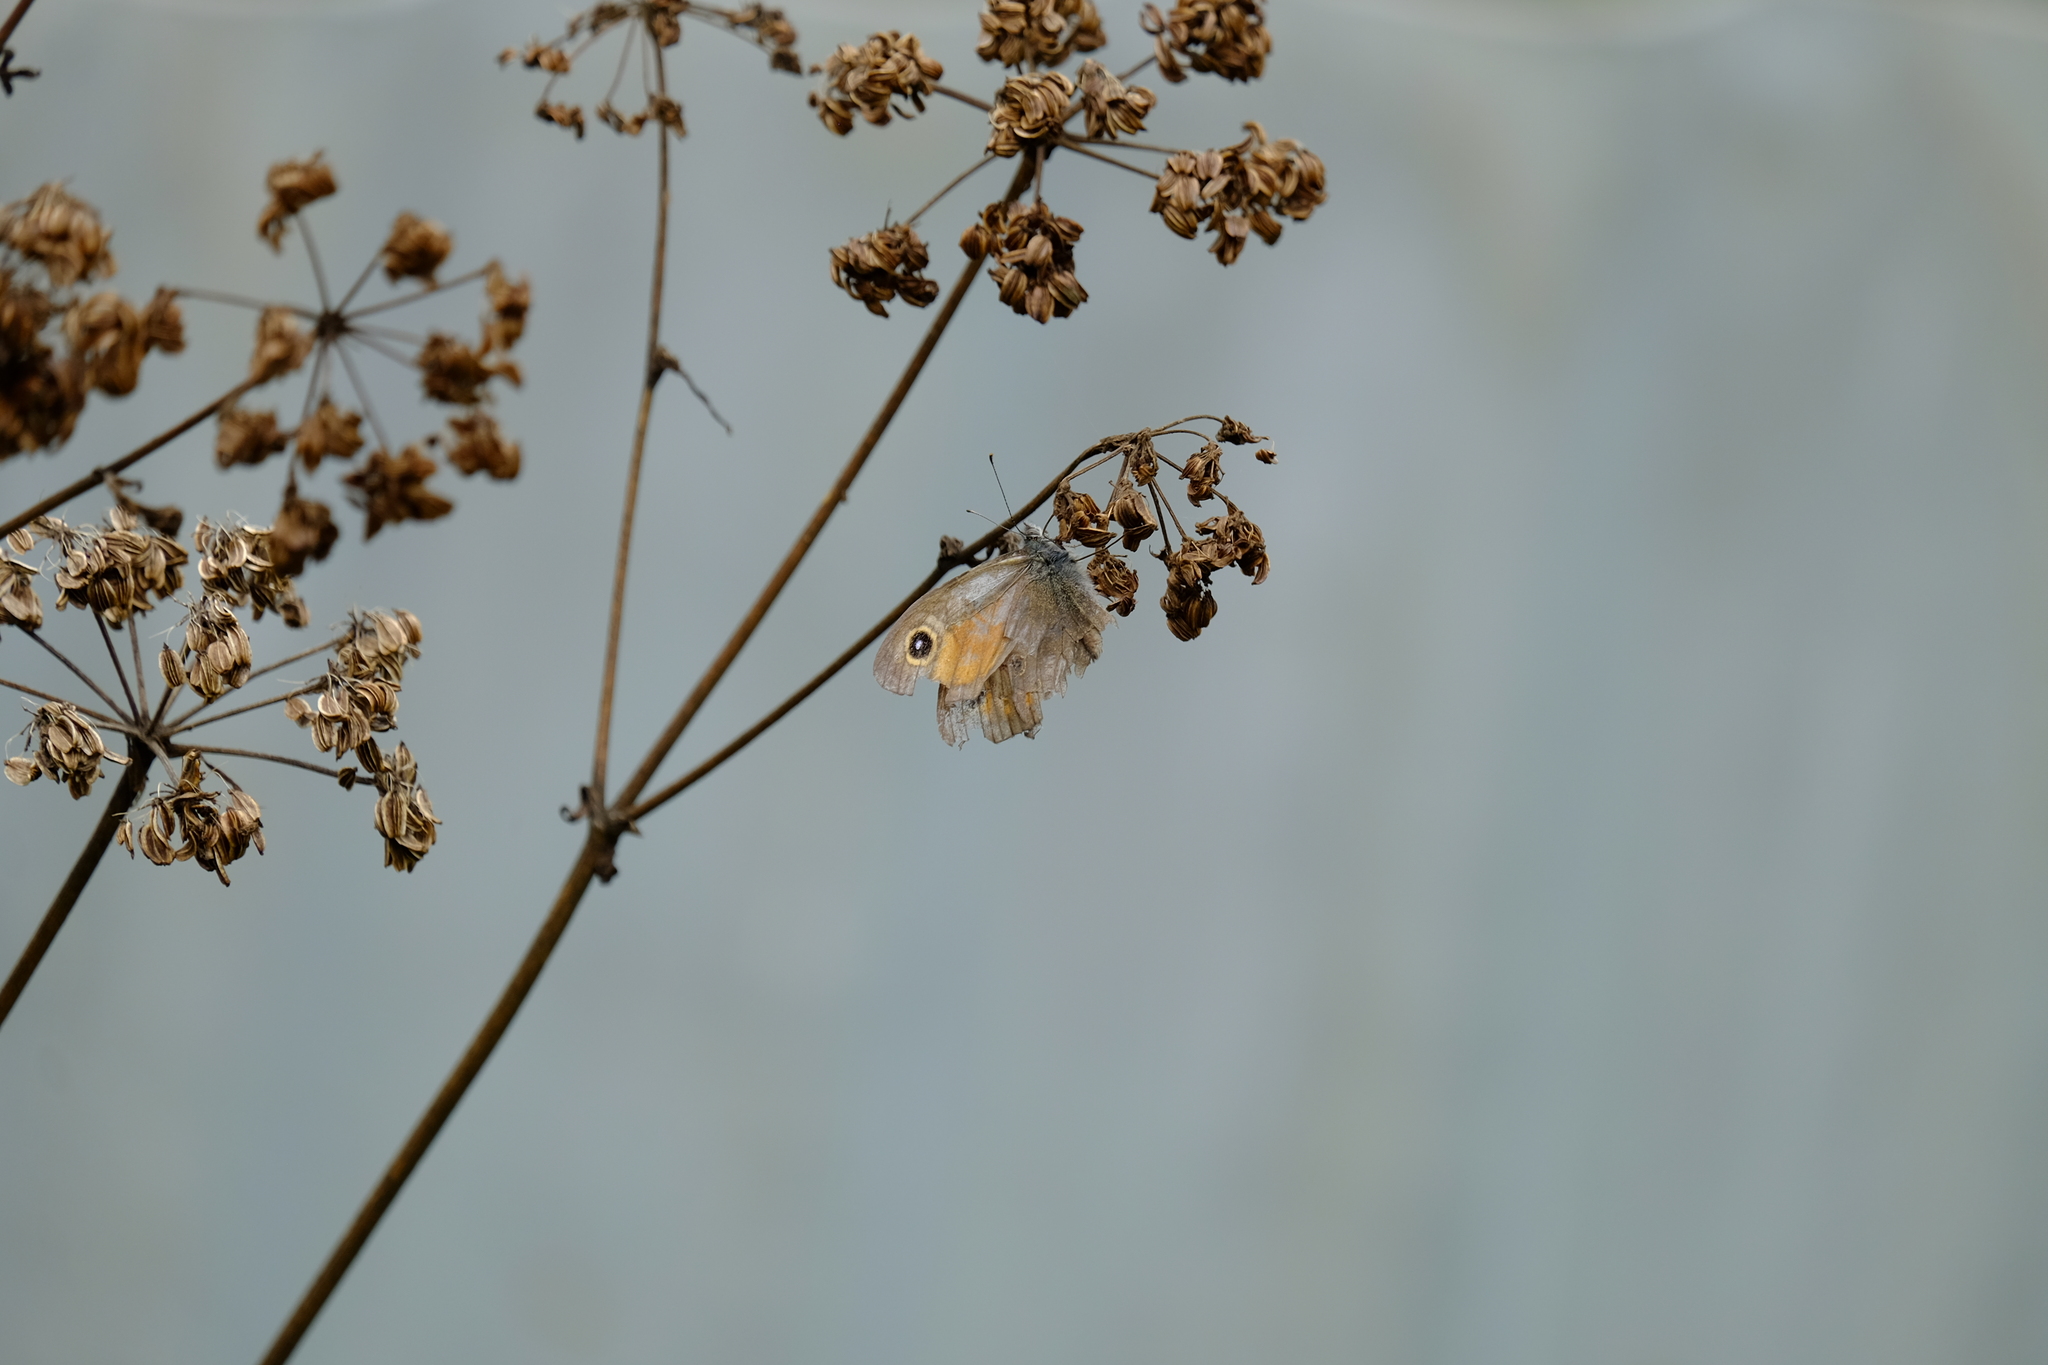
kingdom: Animalia
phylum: Arthropoda
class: Insecta
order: Lepidoptera
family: Nymphalidae
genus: Pararge
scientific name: Pararge Lasiommata maera
